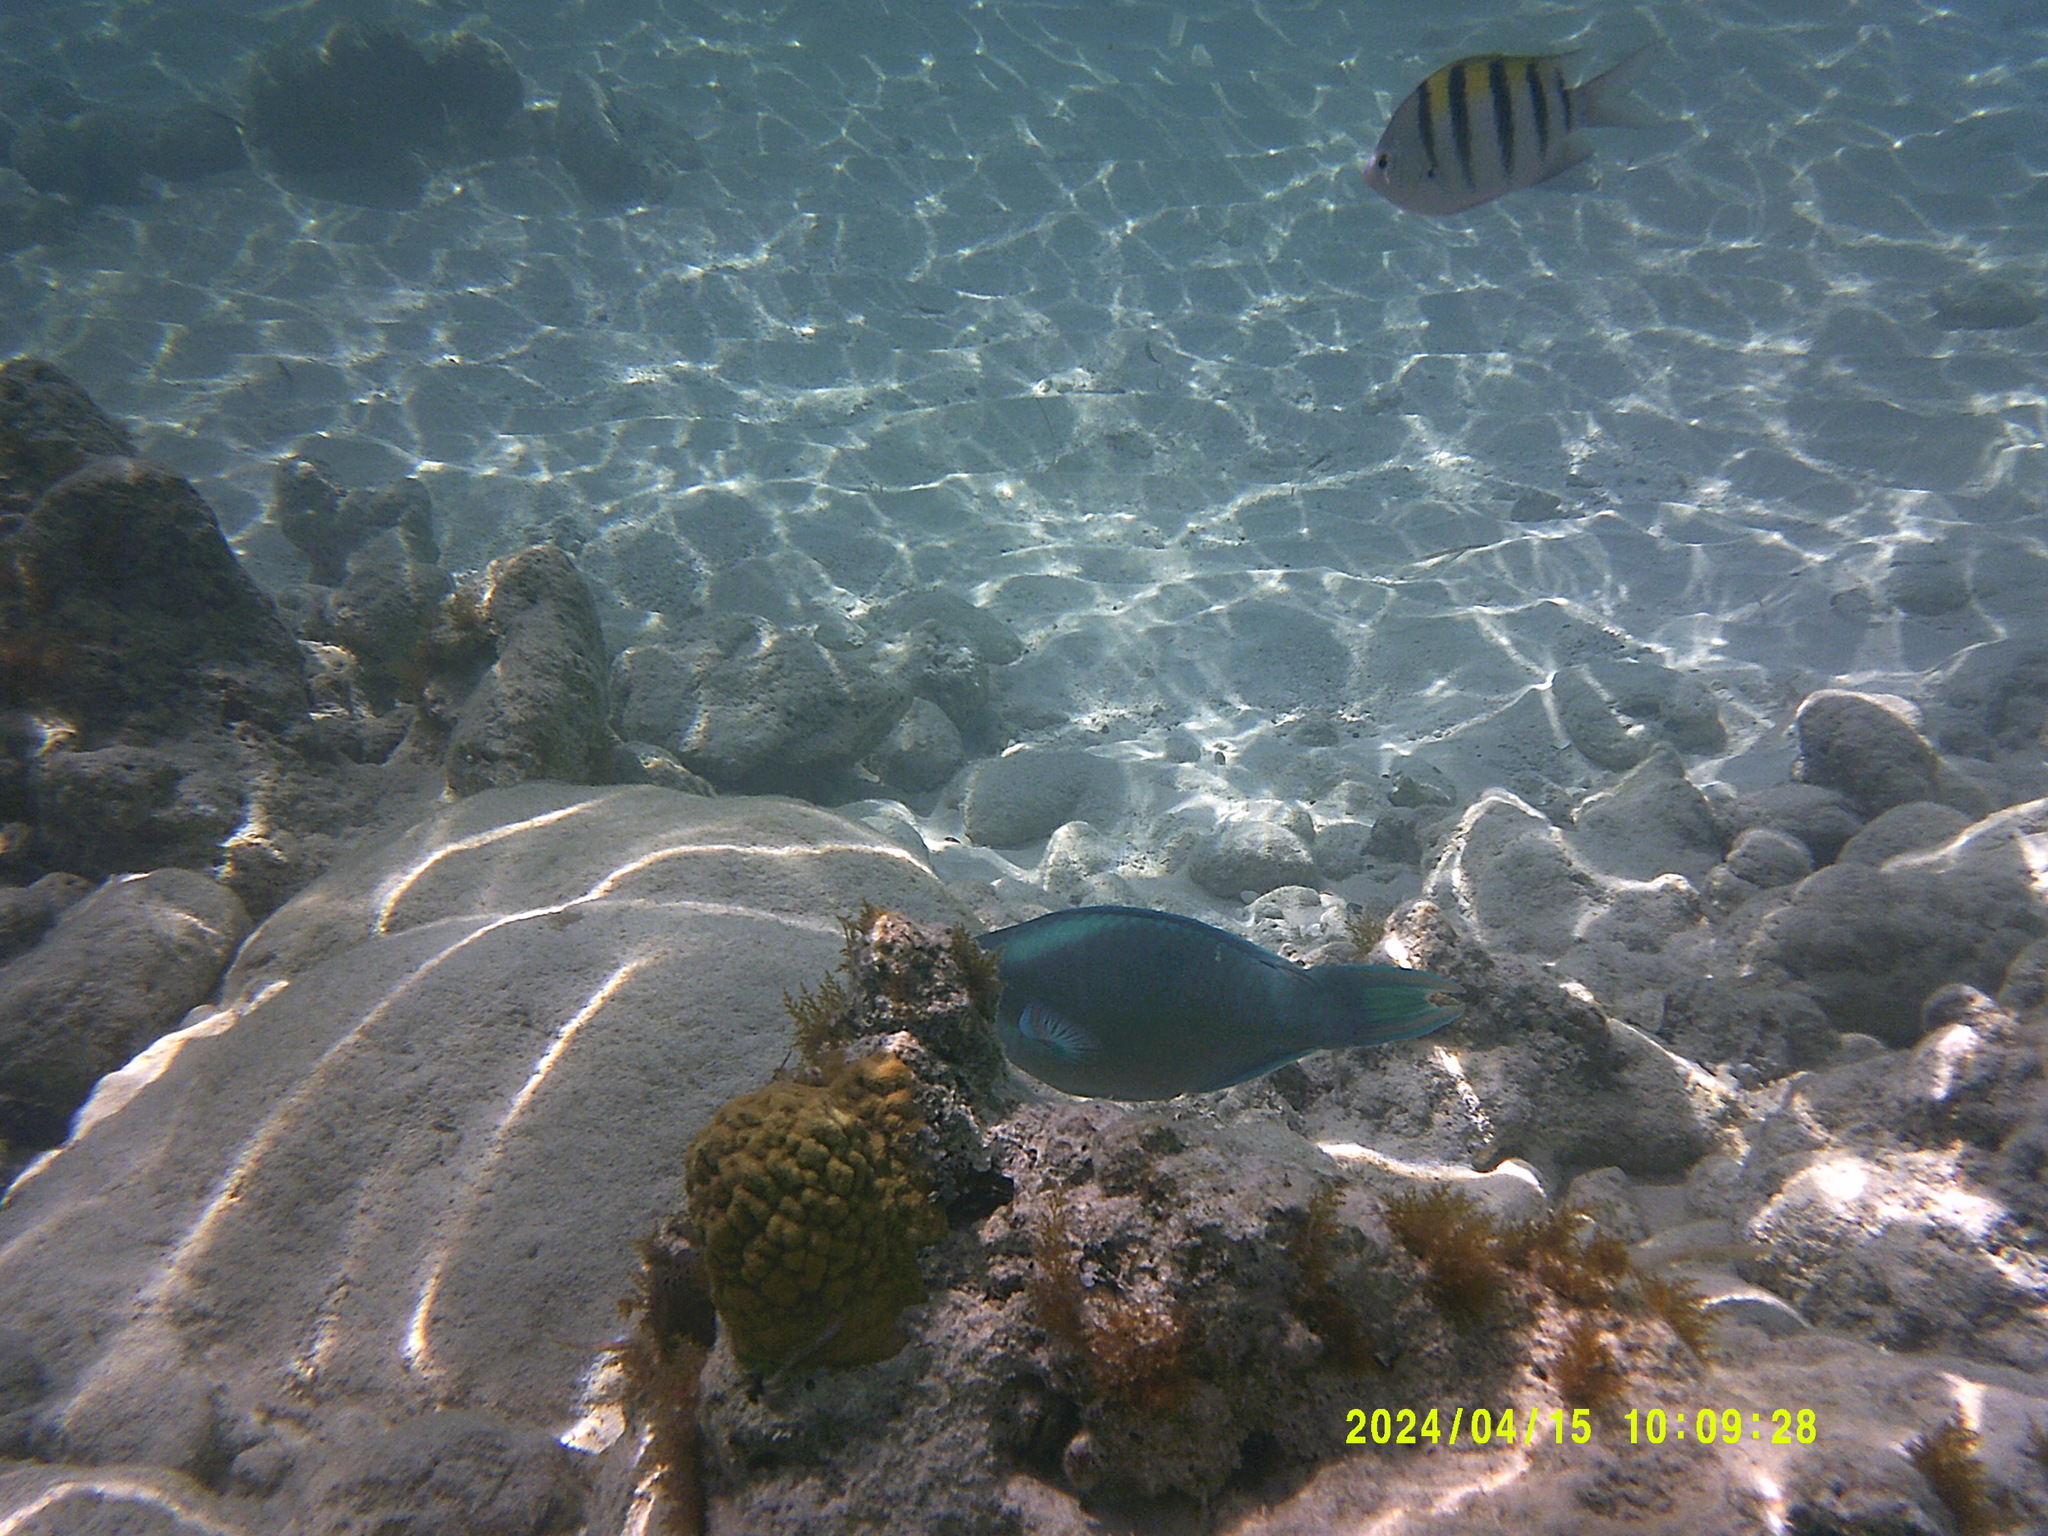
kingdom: Animalia
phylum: Chordata
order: Perciformes
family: Scaridae
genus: Scarus
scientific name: Scarus vetula
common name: Queen parrotfish
